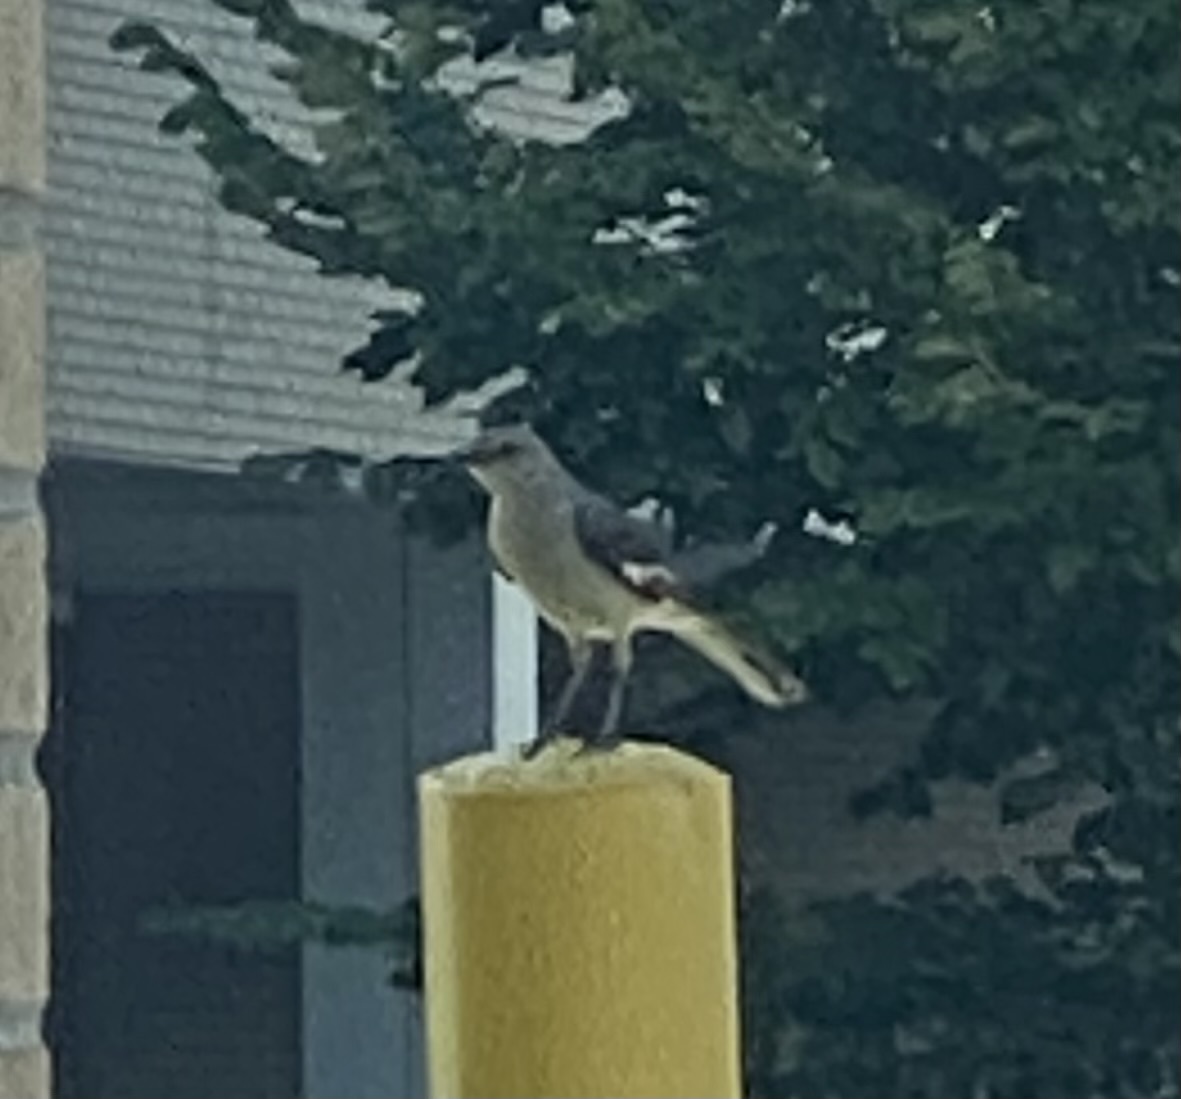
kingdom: Animalia
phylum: Chordata
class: Aves
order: Passeriformes
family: Mimidae
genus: Mimus
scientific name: Mimus polyglottos
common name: Northern mockingbird
